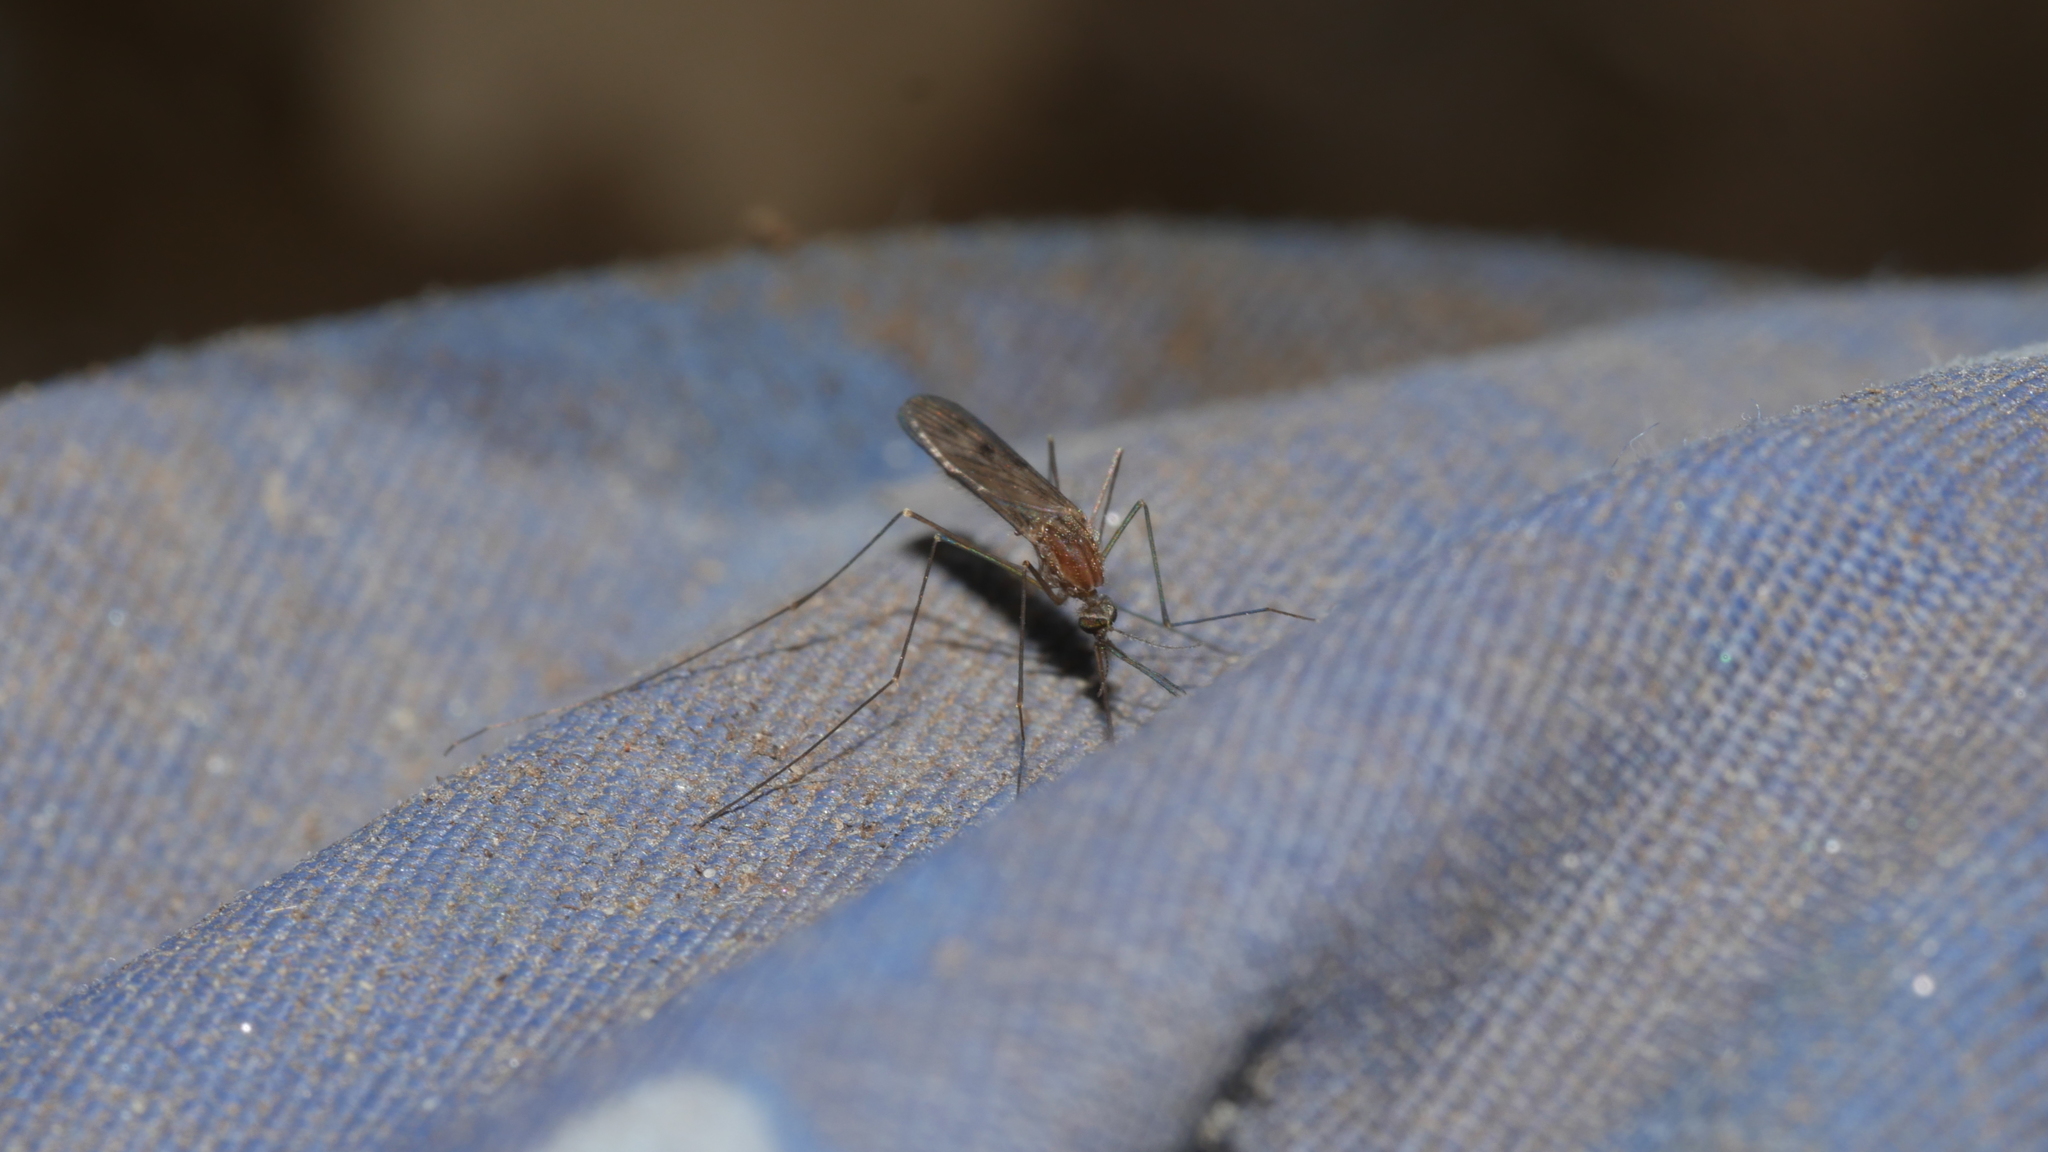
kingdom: Animalia
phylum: Arthropoda
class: Insecta
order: Diptera
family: Culicidae
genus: Anopheles
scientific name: Anopheles
